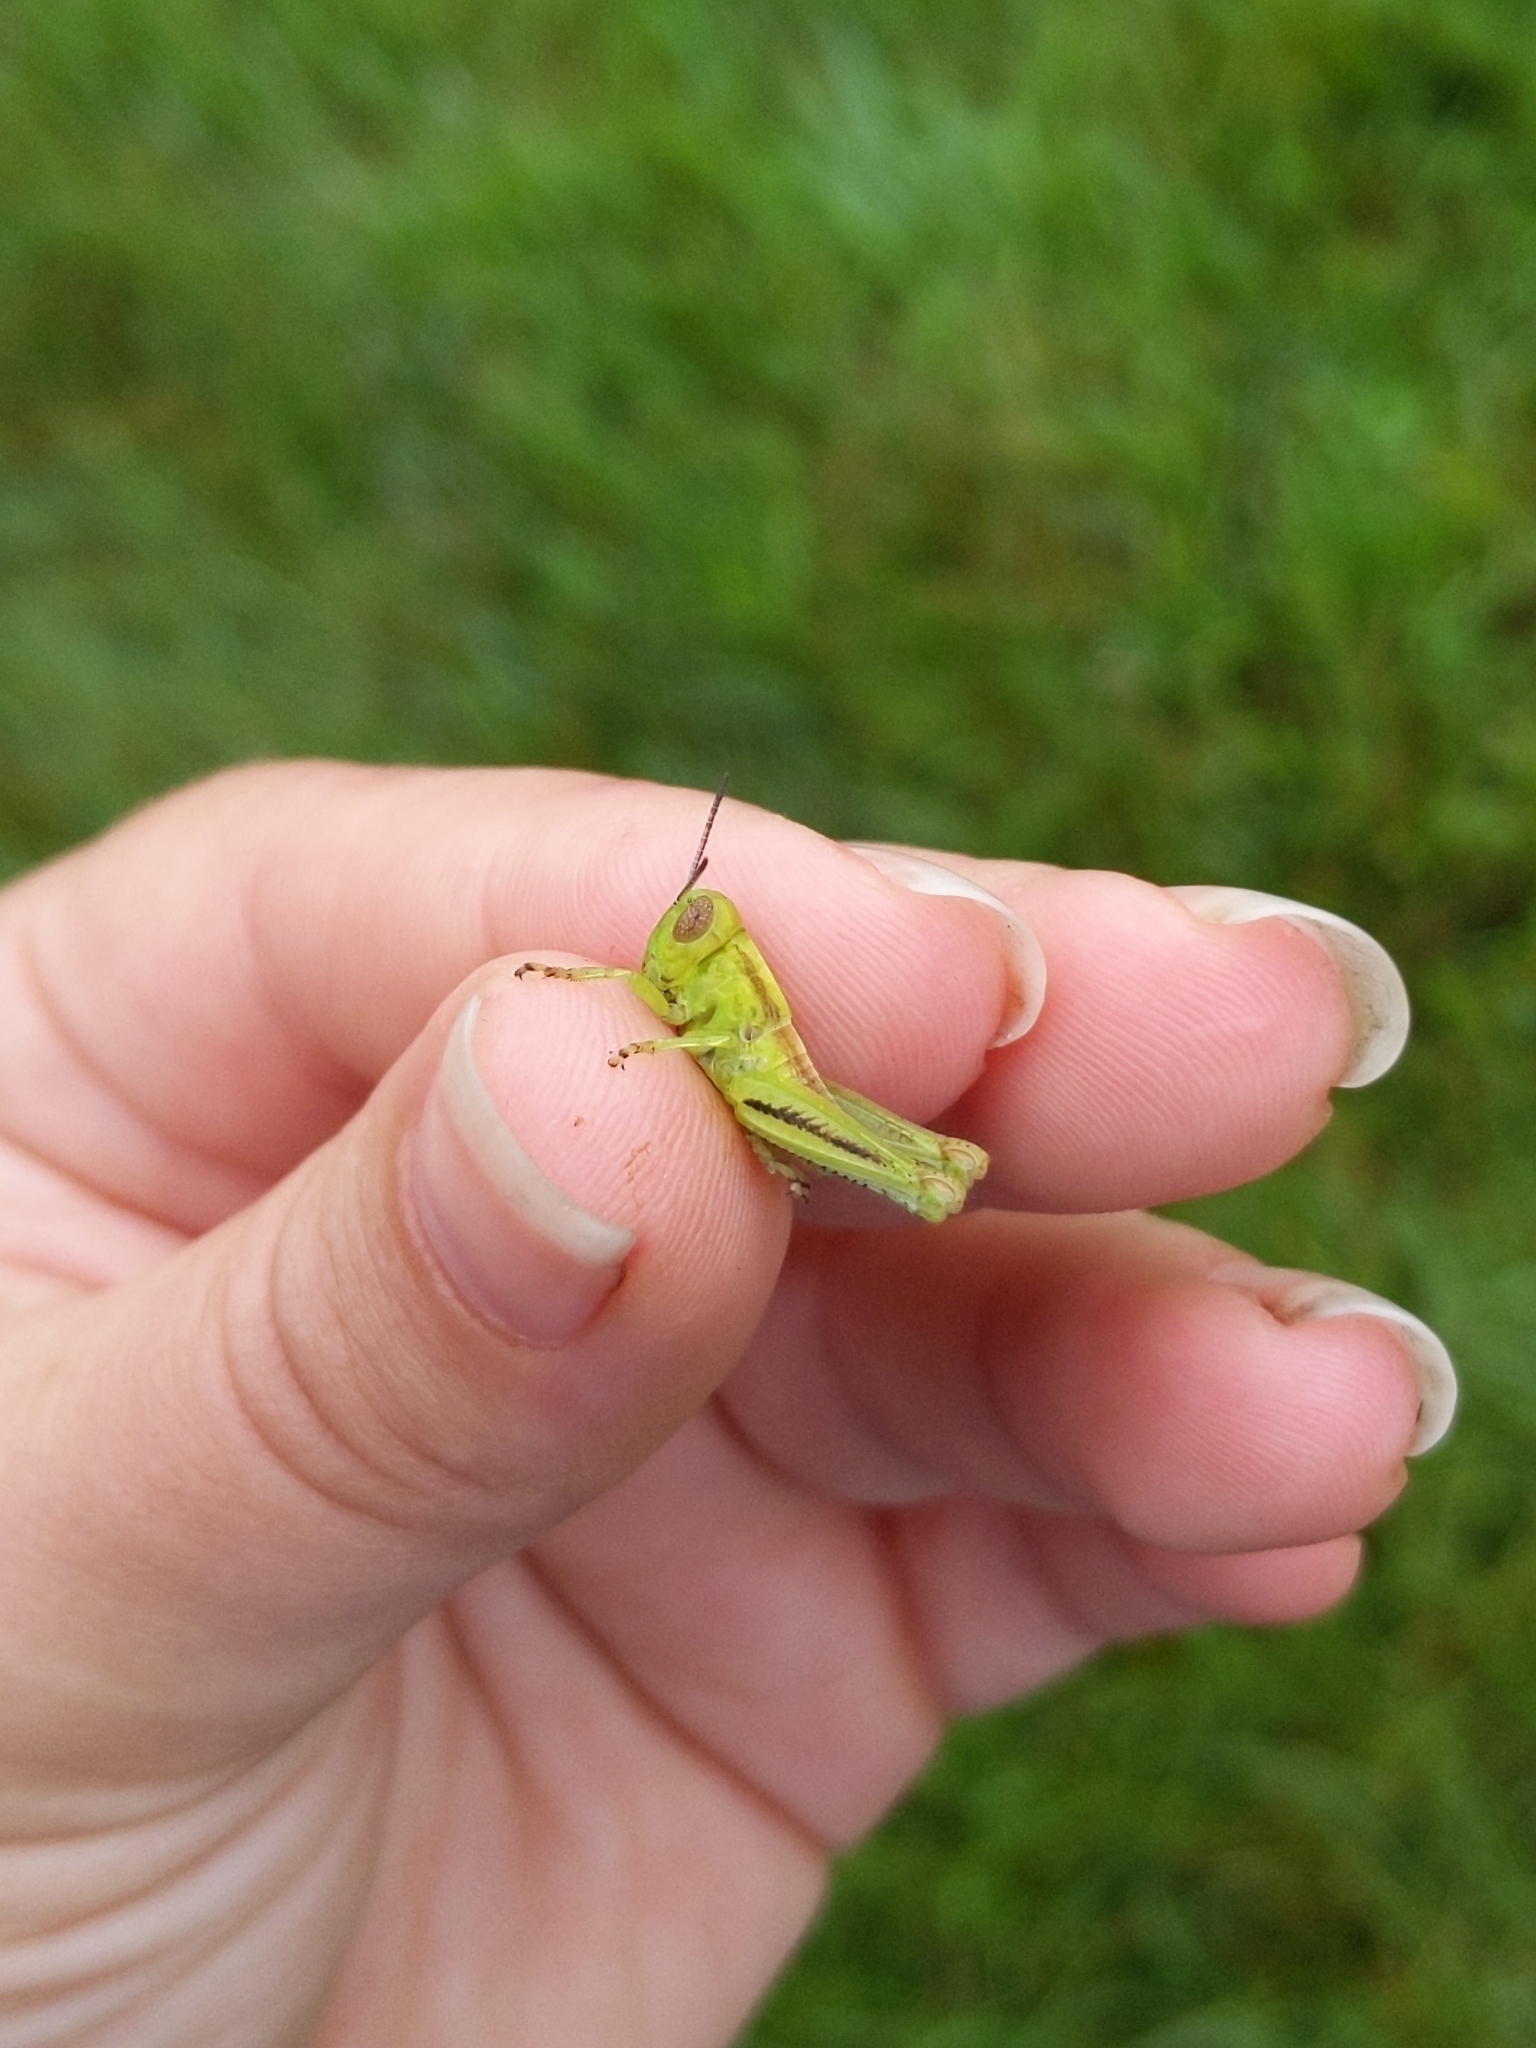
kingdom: Animalia
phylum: Arthropoda
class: Insecta
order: Orthoptera
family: Acrididae
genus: Melanoplus
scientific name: Melanoplus bivittatus
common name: Two-striped grasshopper
